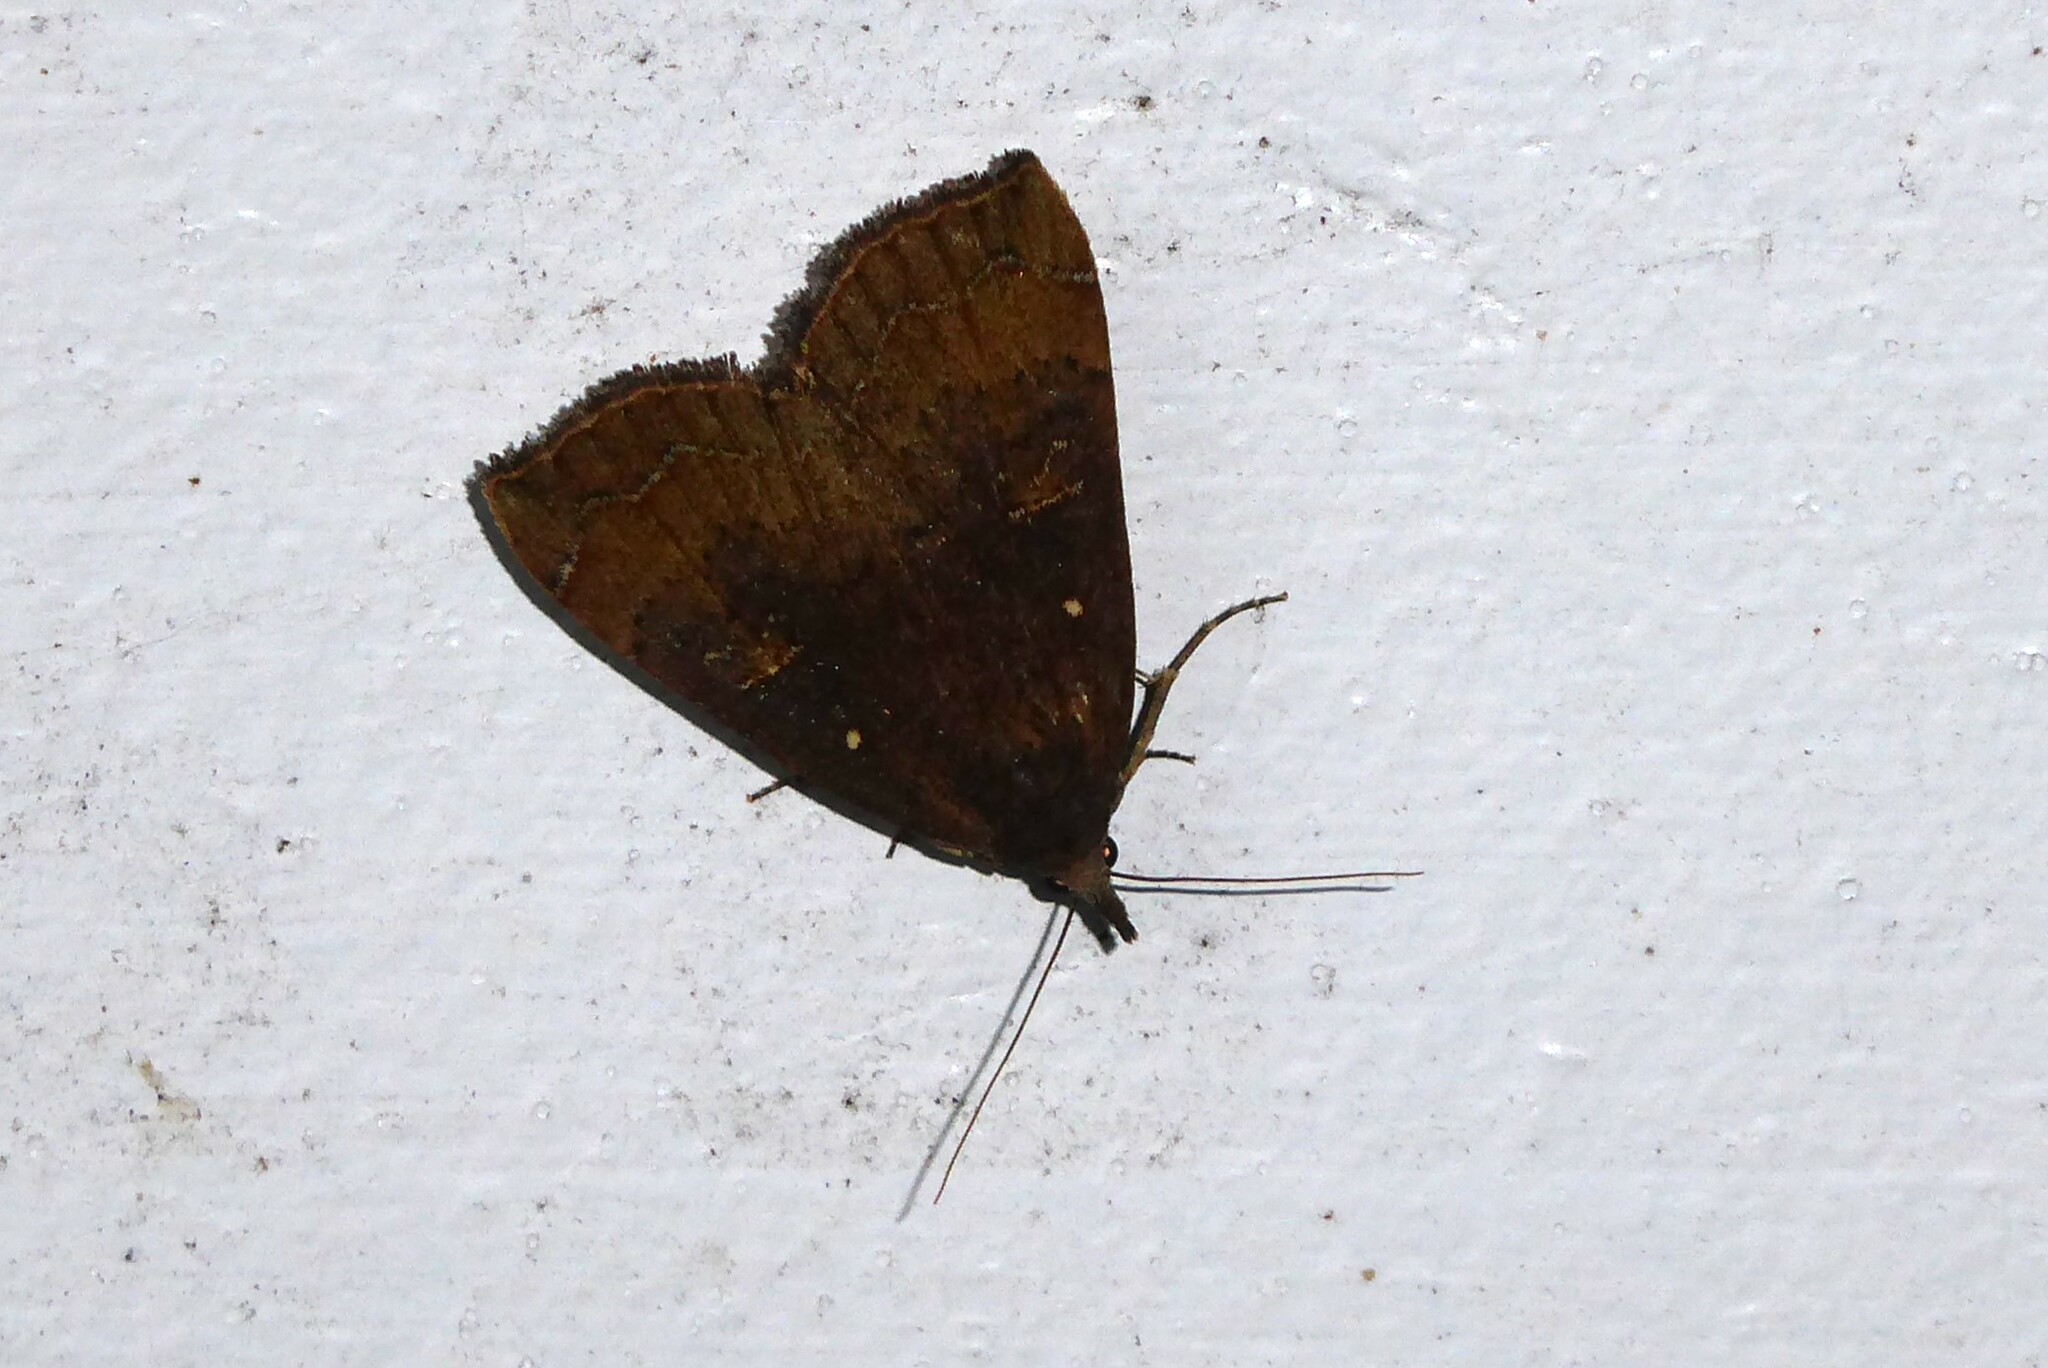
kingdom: Animalia
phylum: Arthropoda
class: Insecta
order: Lepidoptera
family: Erebidae
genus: Rhapsa
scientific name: Rhapsa scotosialis
